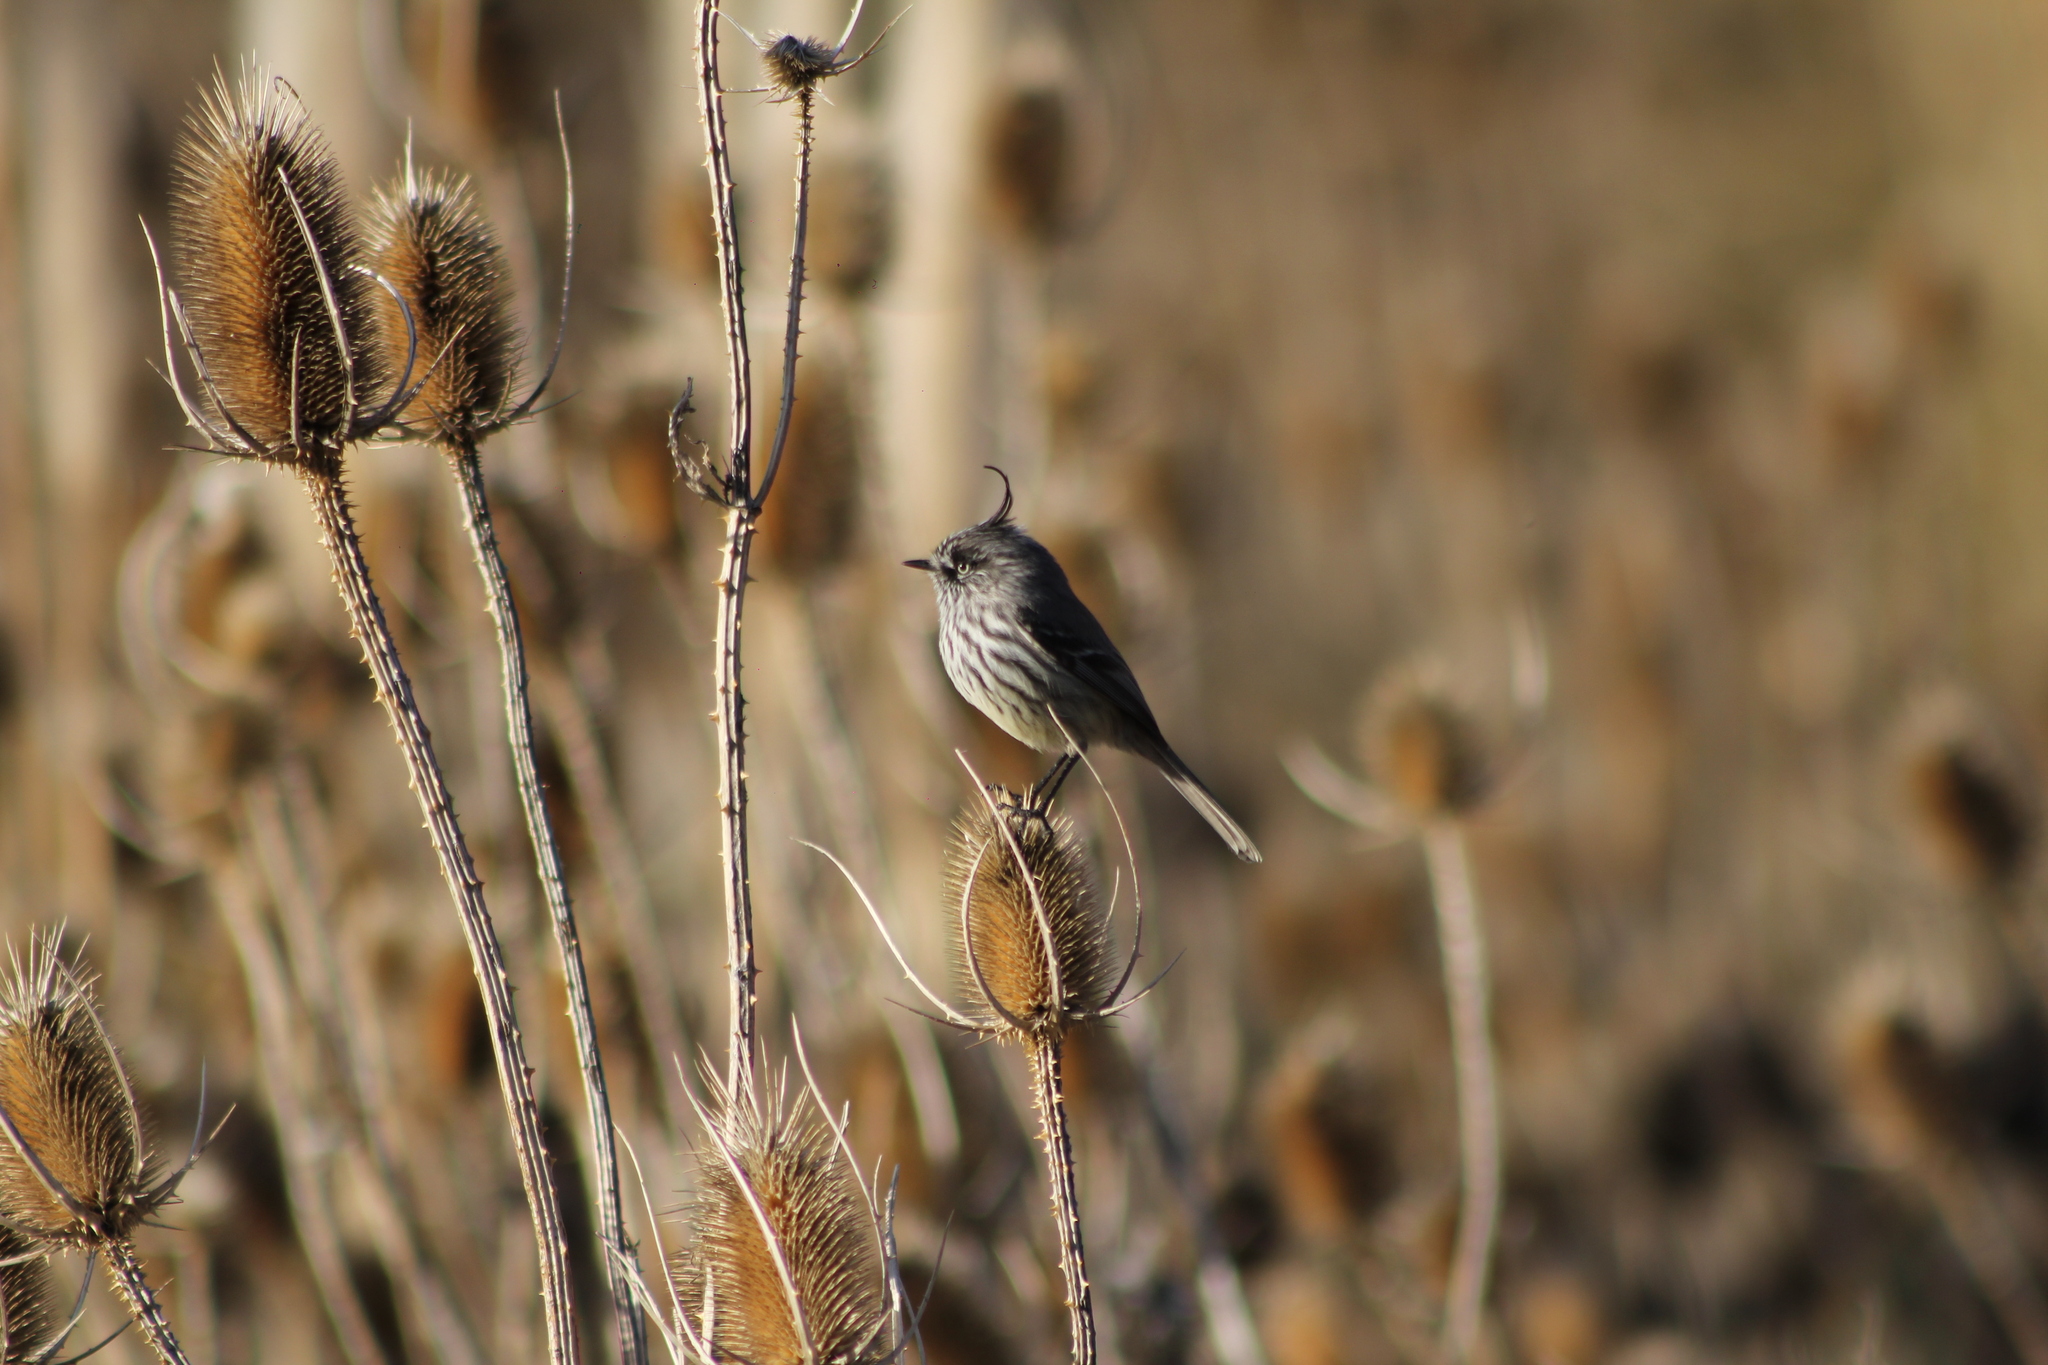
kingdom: Animalia
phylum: Chordata
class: Aves
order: Passeriformes
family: Tyrannidae
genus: Anairetes
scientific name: Anairetes parulus
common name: Tufted tit-tyrant
